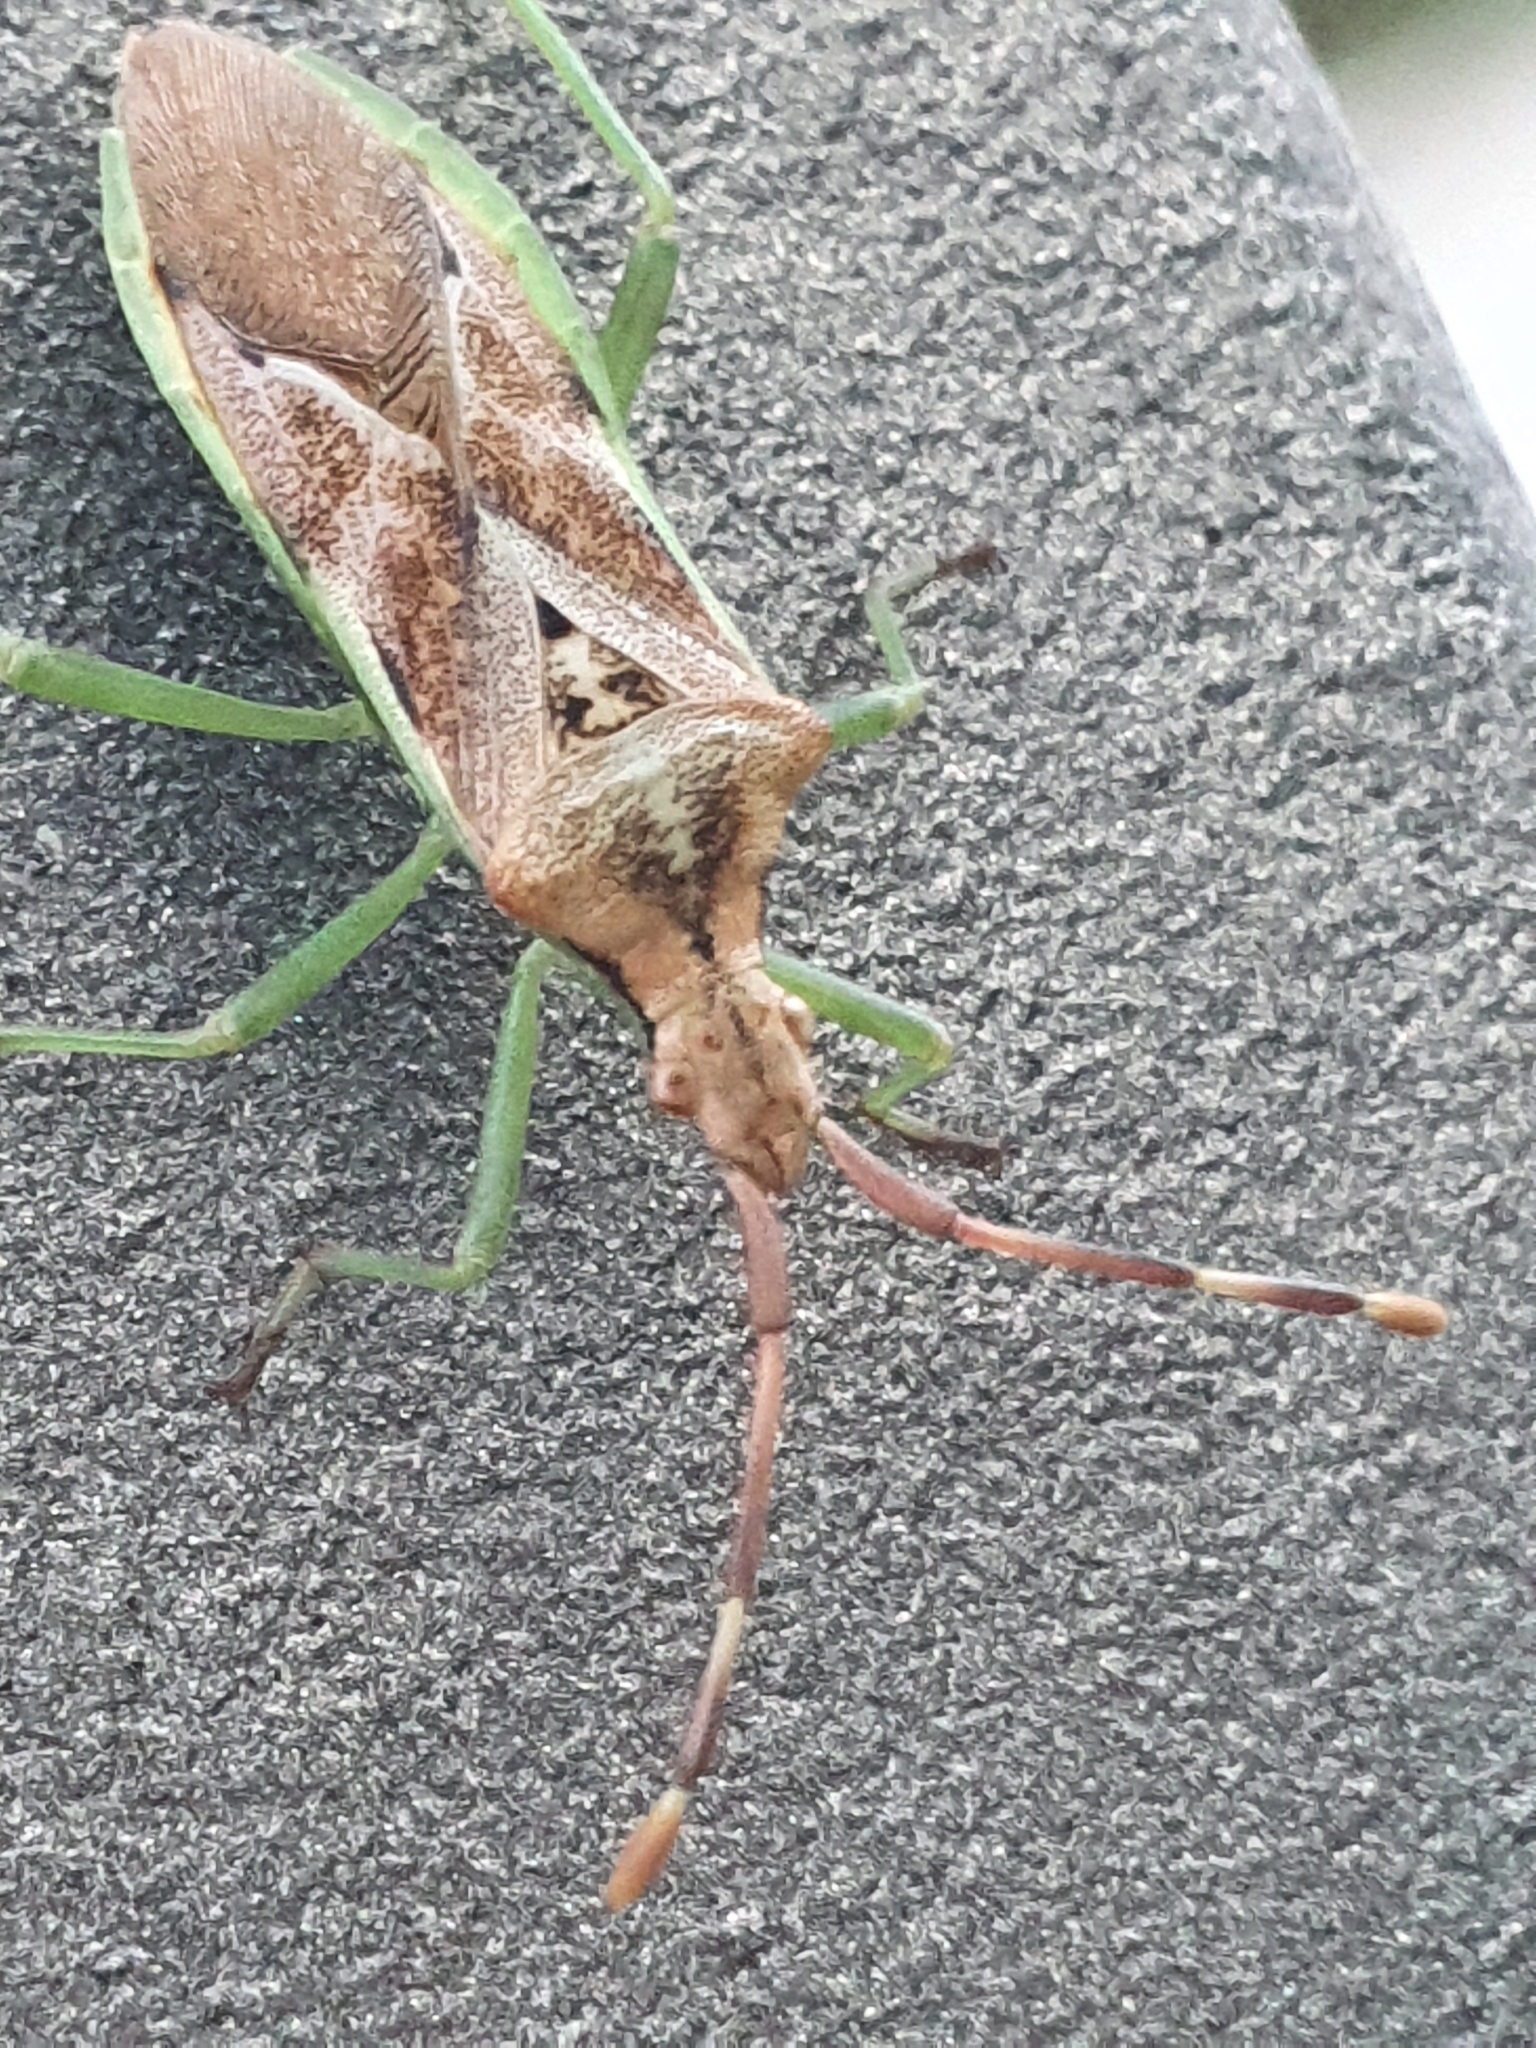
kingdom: Animalia
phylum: Arthropoda
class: Insecta
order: Hemiptera
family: Coreidae
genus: Gonocerus
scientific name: Gonocerus juniperi
